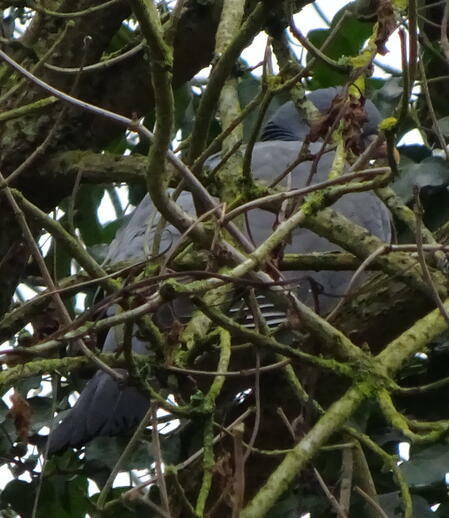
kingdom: Animalia
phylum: Chordata
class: Aves
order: Columbiformes
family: Columbidae
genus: Columba
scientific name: Columba palumbus
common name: Common wood pigeon
